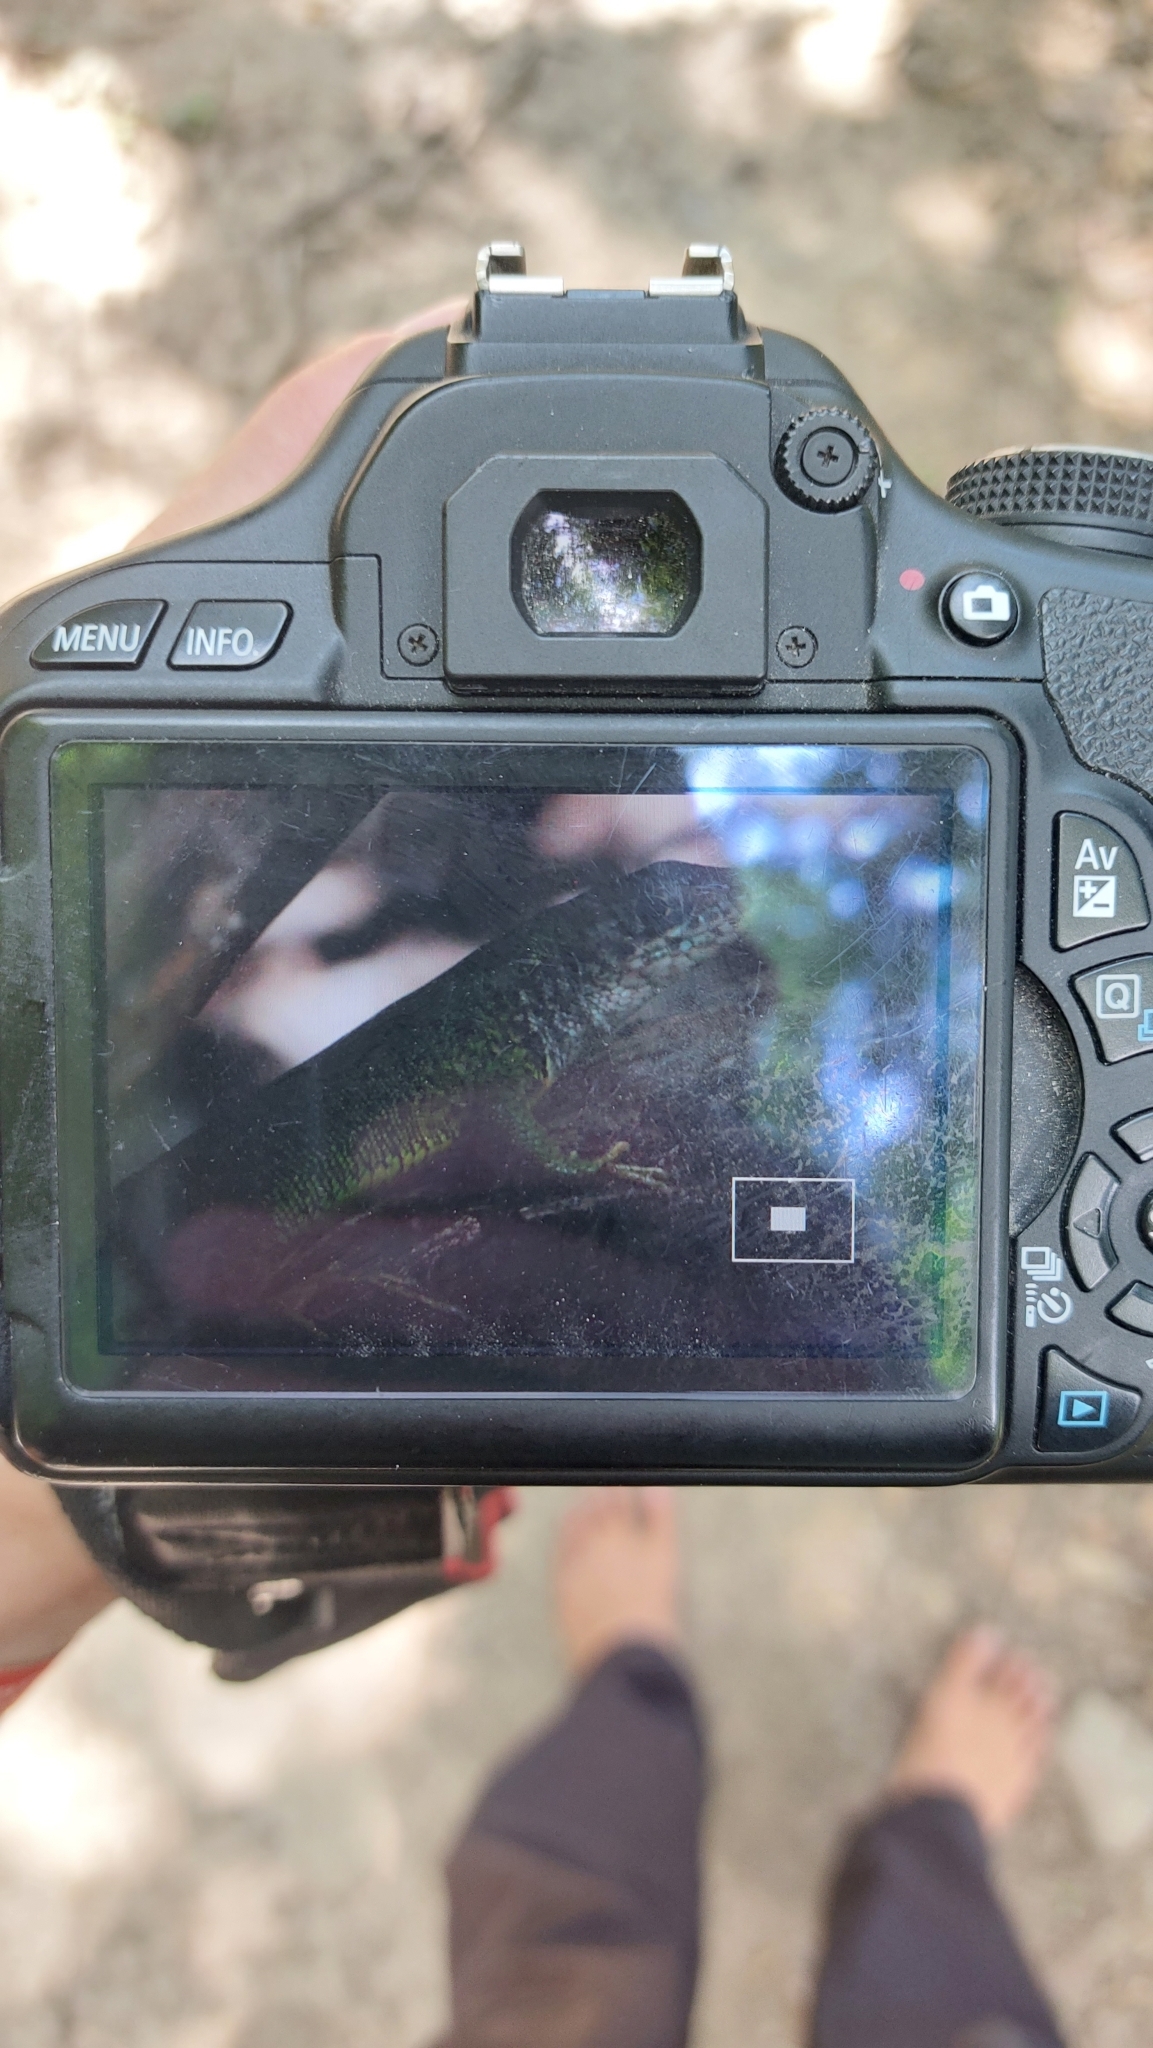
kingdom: Animalia
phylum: Chordata
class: Squamata
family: Lacertidae
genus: Lacerta
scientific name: Lacerta viridis
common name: European green lizard
